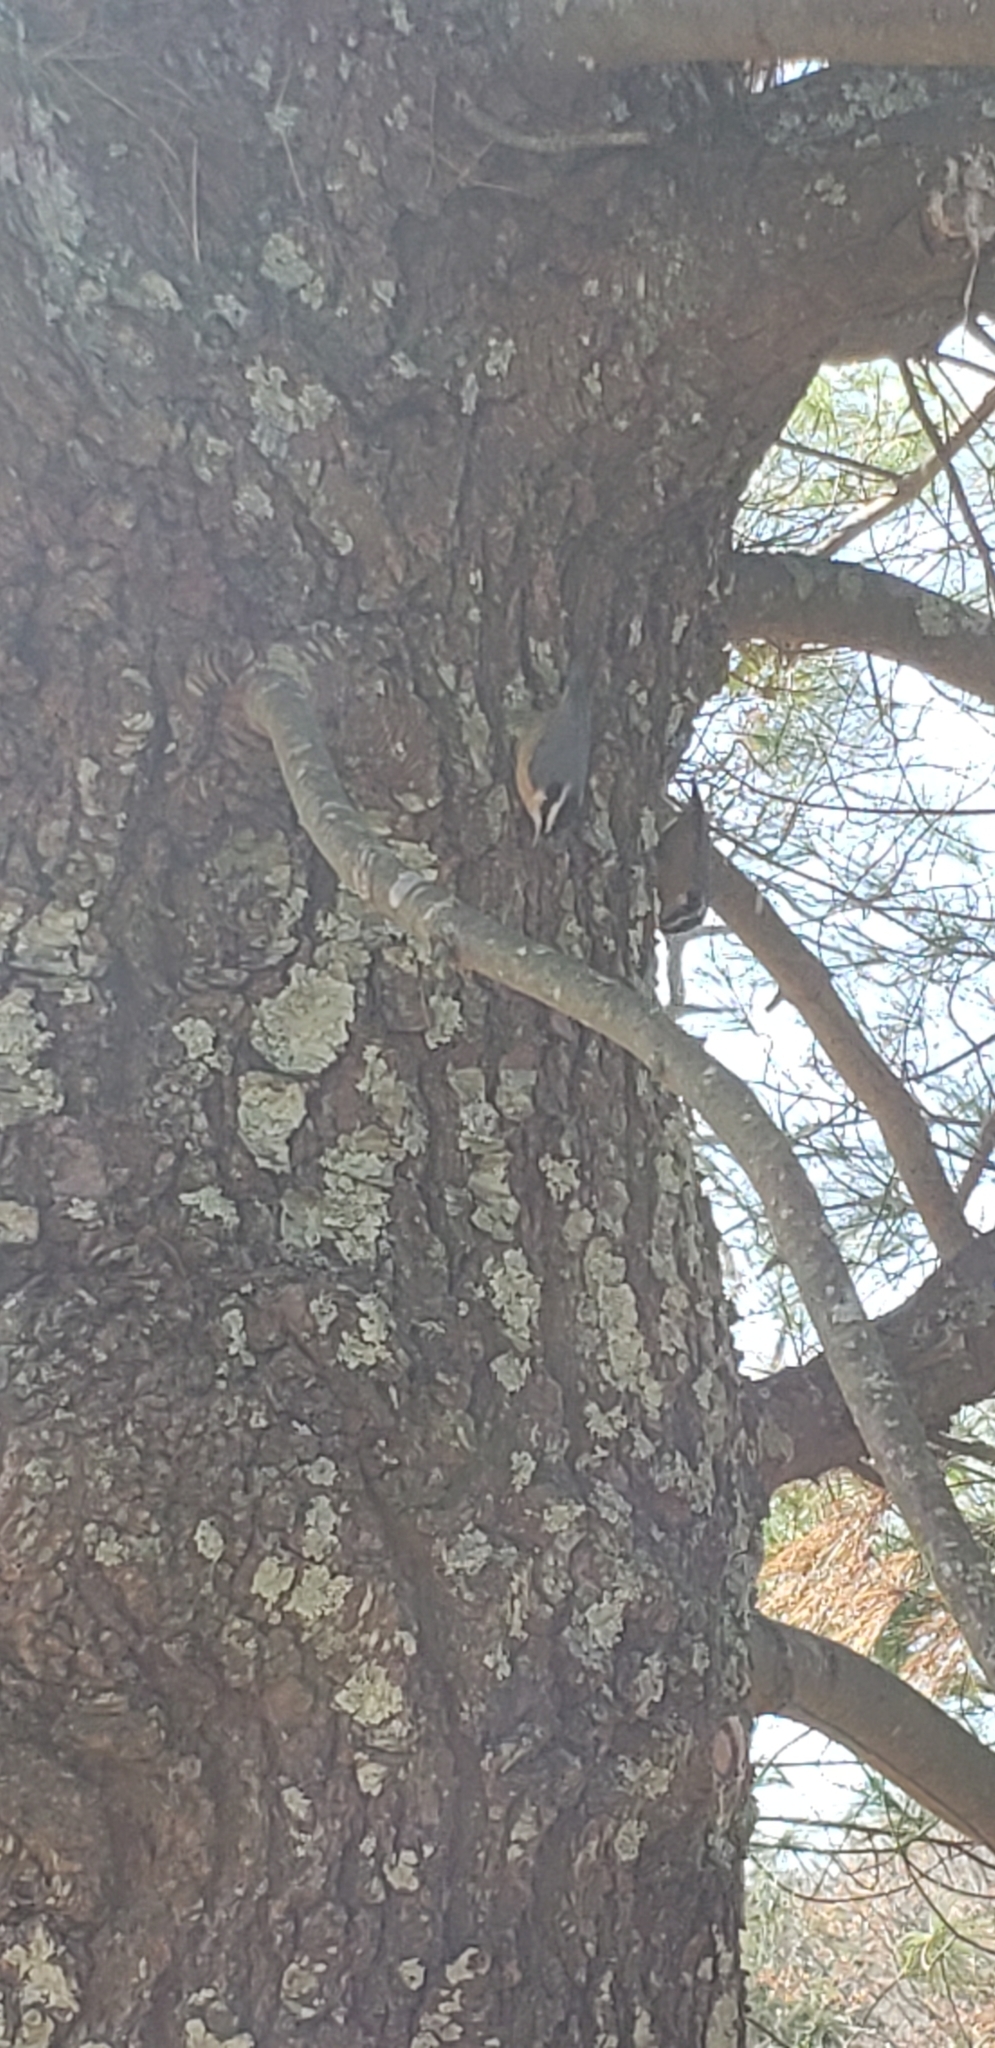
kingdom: Animalia
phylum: Chordata
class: Aves
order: Passeriformes
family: Sittidae
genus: Sitta
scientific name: Sitta canadensis
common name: Red-breasted nuthatch
